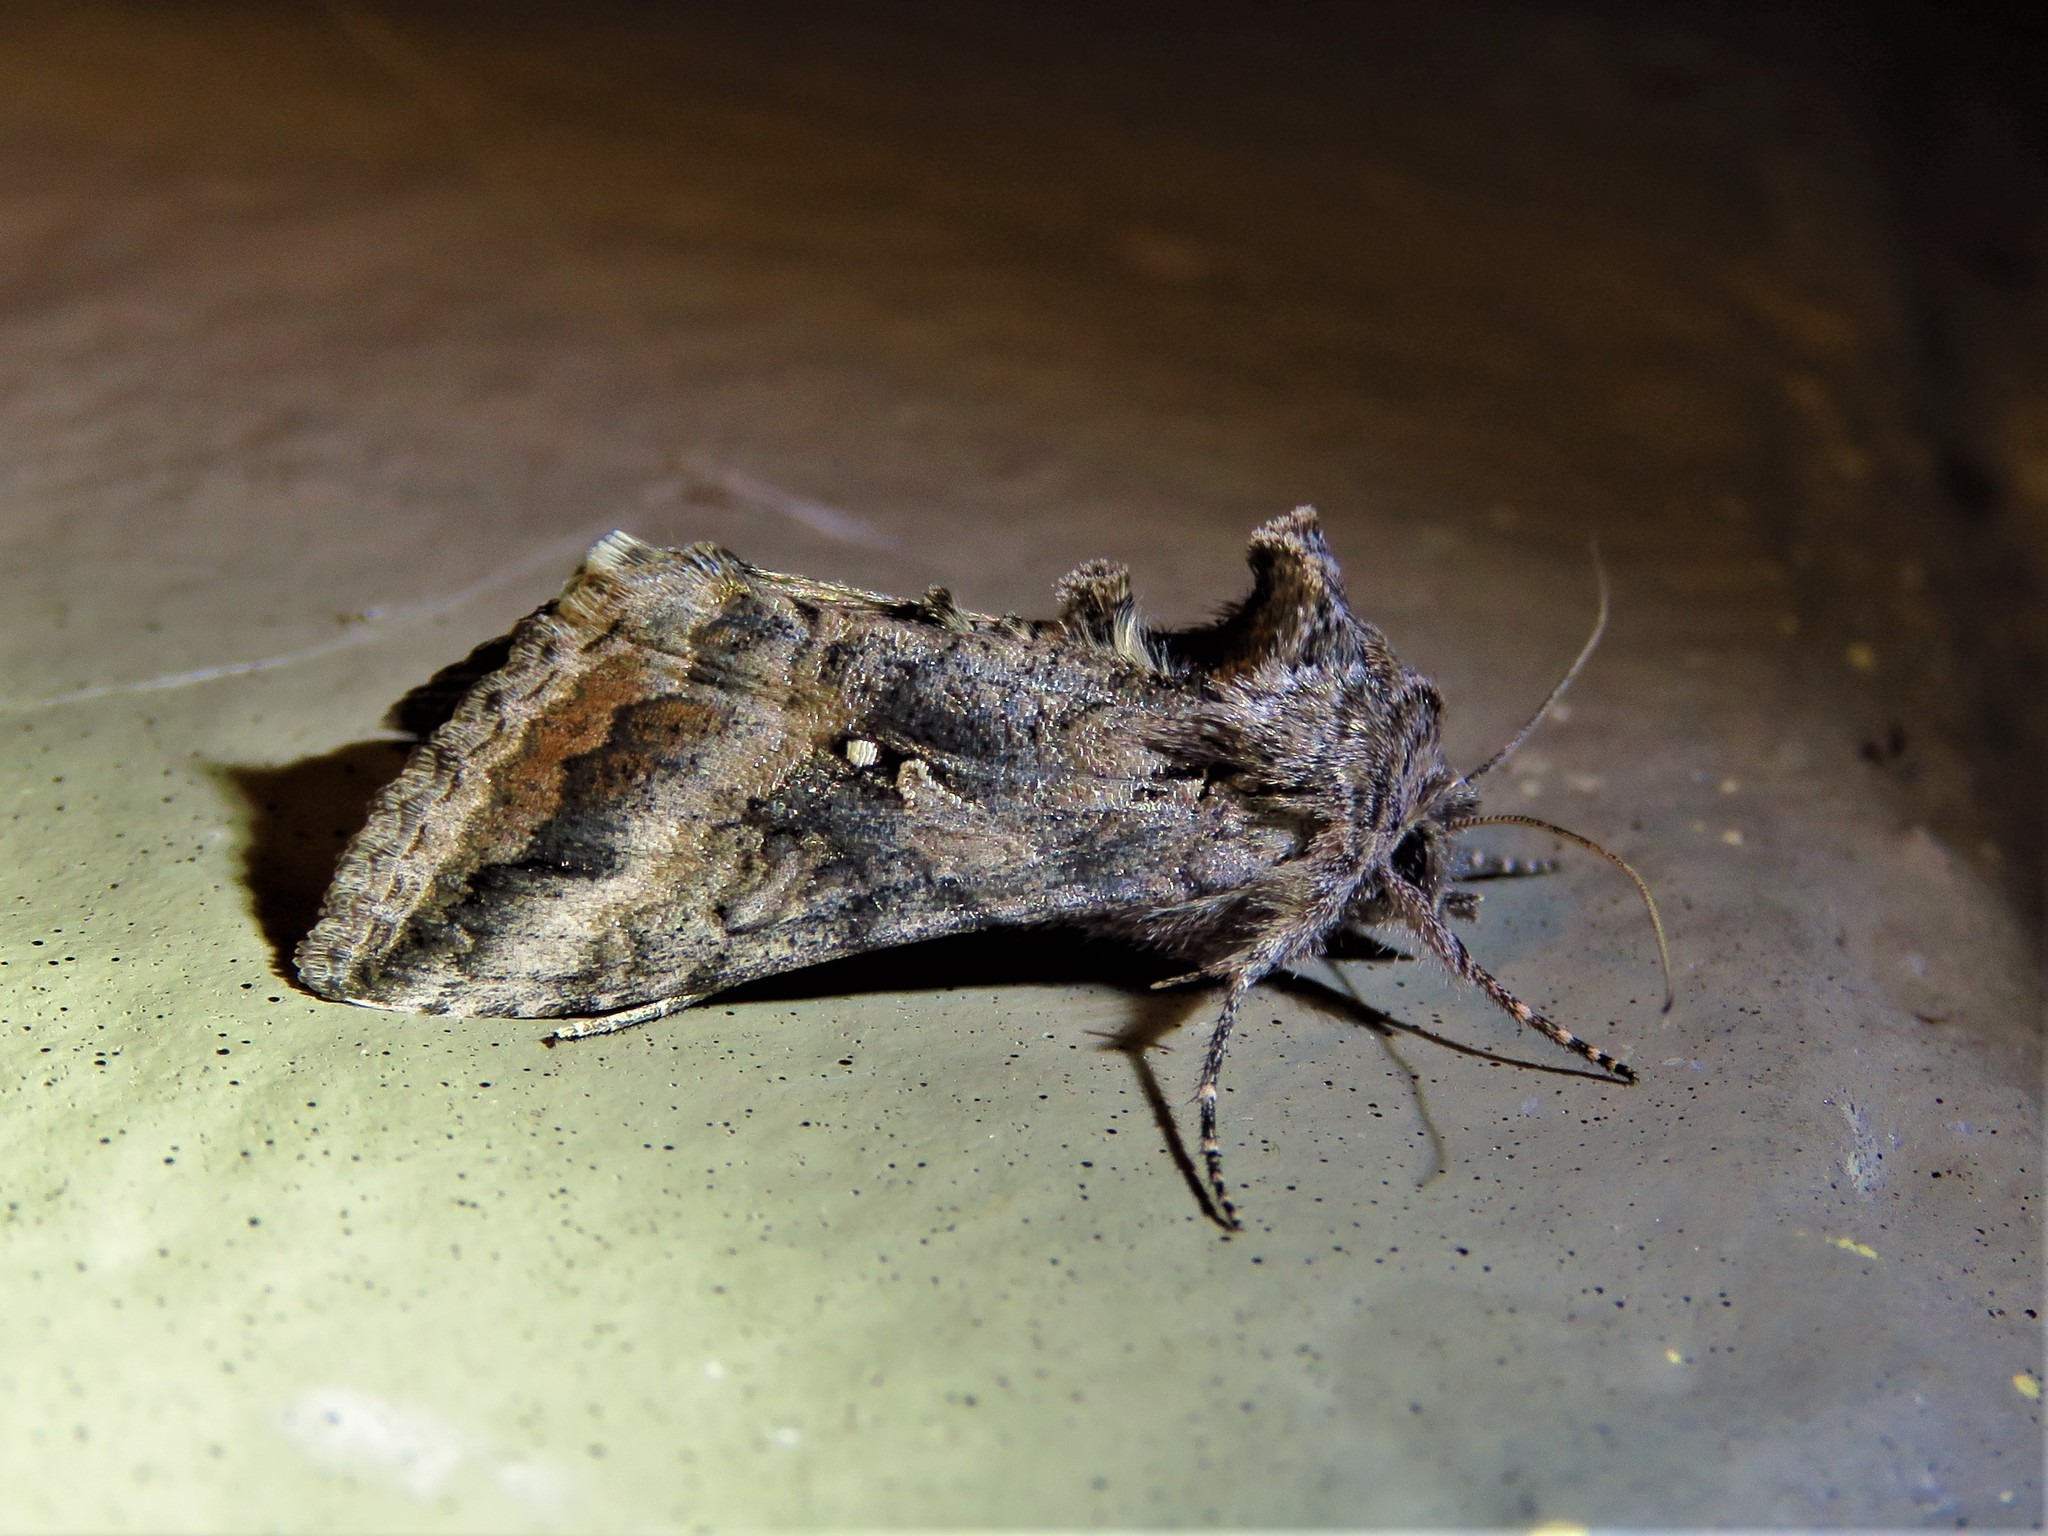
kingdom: Animalia
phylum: Arthropoda
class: Insecta
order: Lepidoptera
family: Noctuidae
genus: Rachiplusia
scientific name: Rachiplusia ou
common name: Gray looper moth
